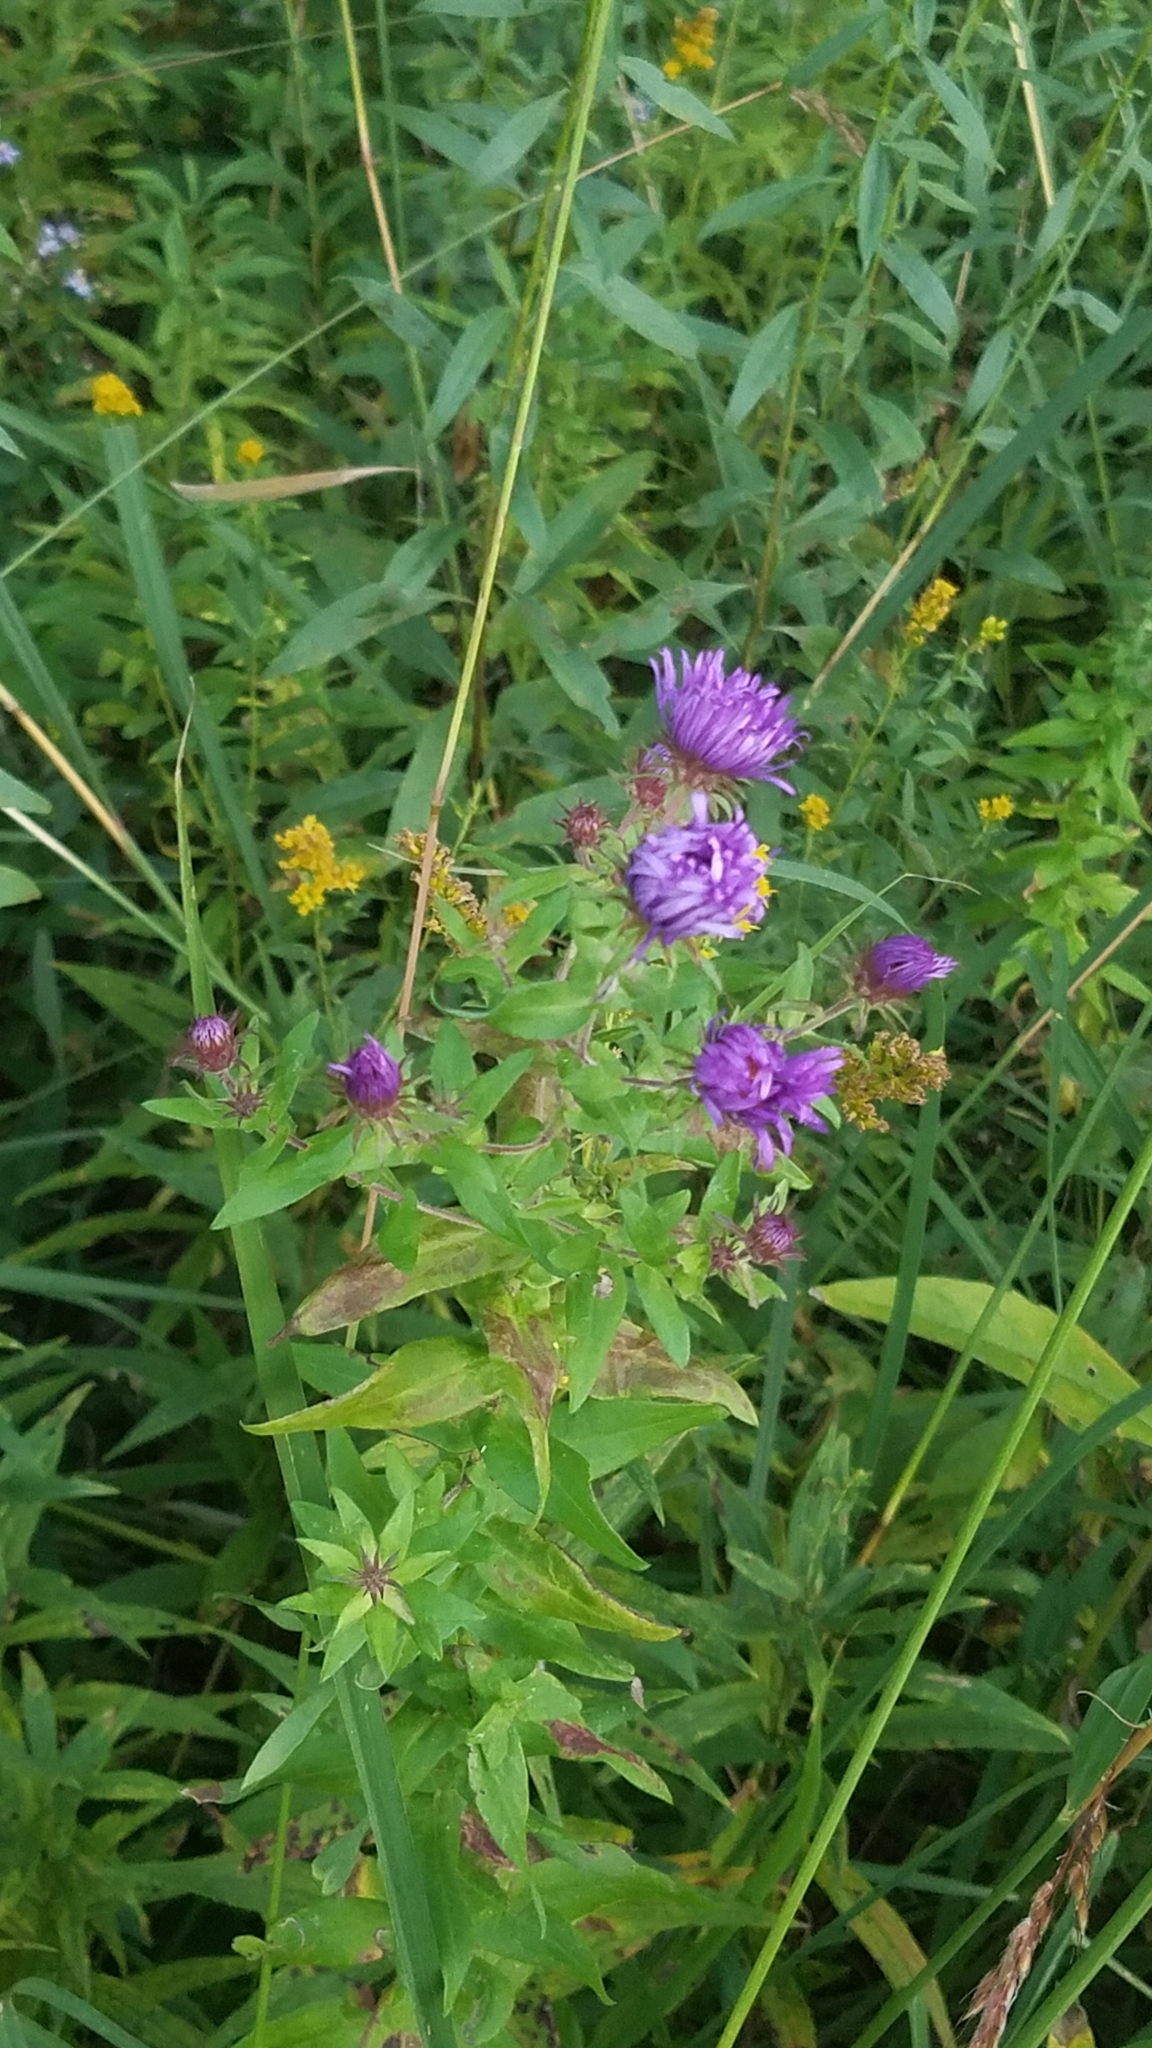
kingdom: Plantae
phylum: Tracheophyta
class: Magnoliopsida
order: Asterales
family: Asteraceae
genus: Symphyotrichum
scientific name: Symphyotrichum novae-angliae
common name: Michaelmas daisy
